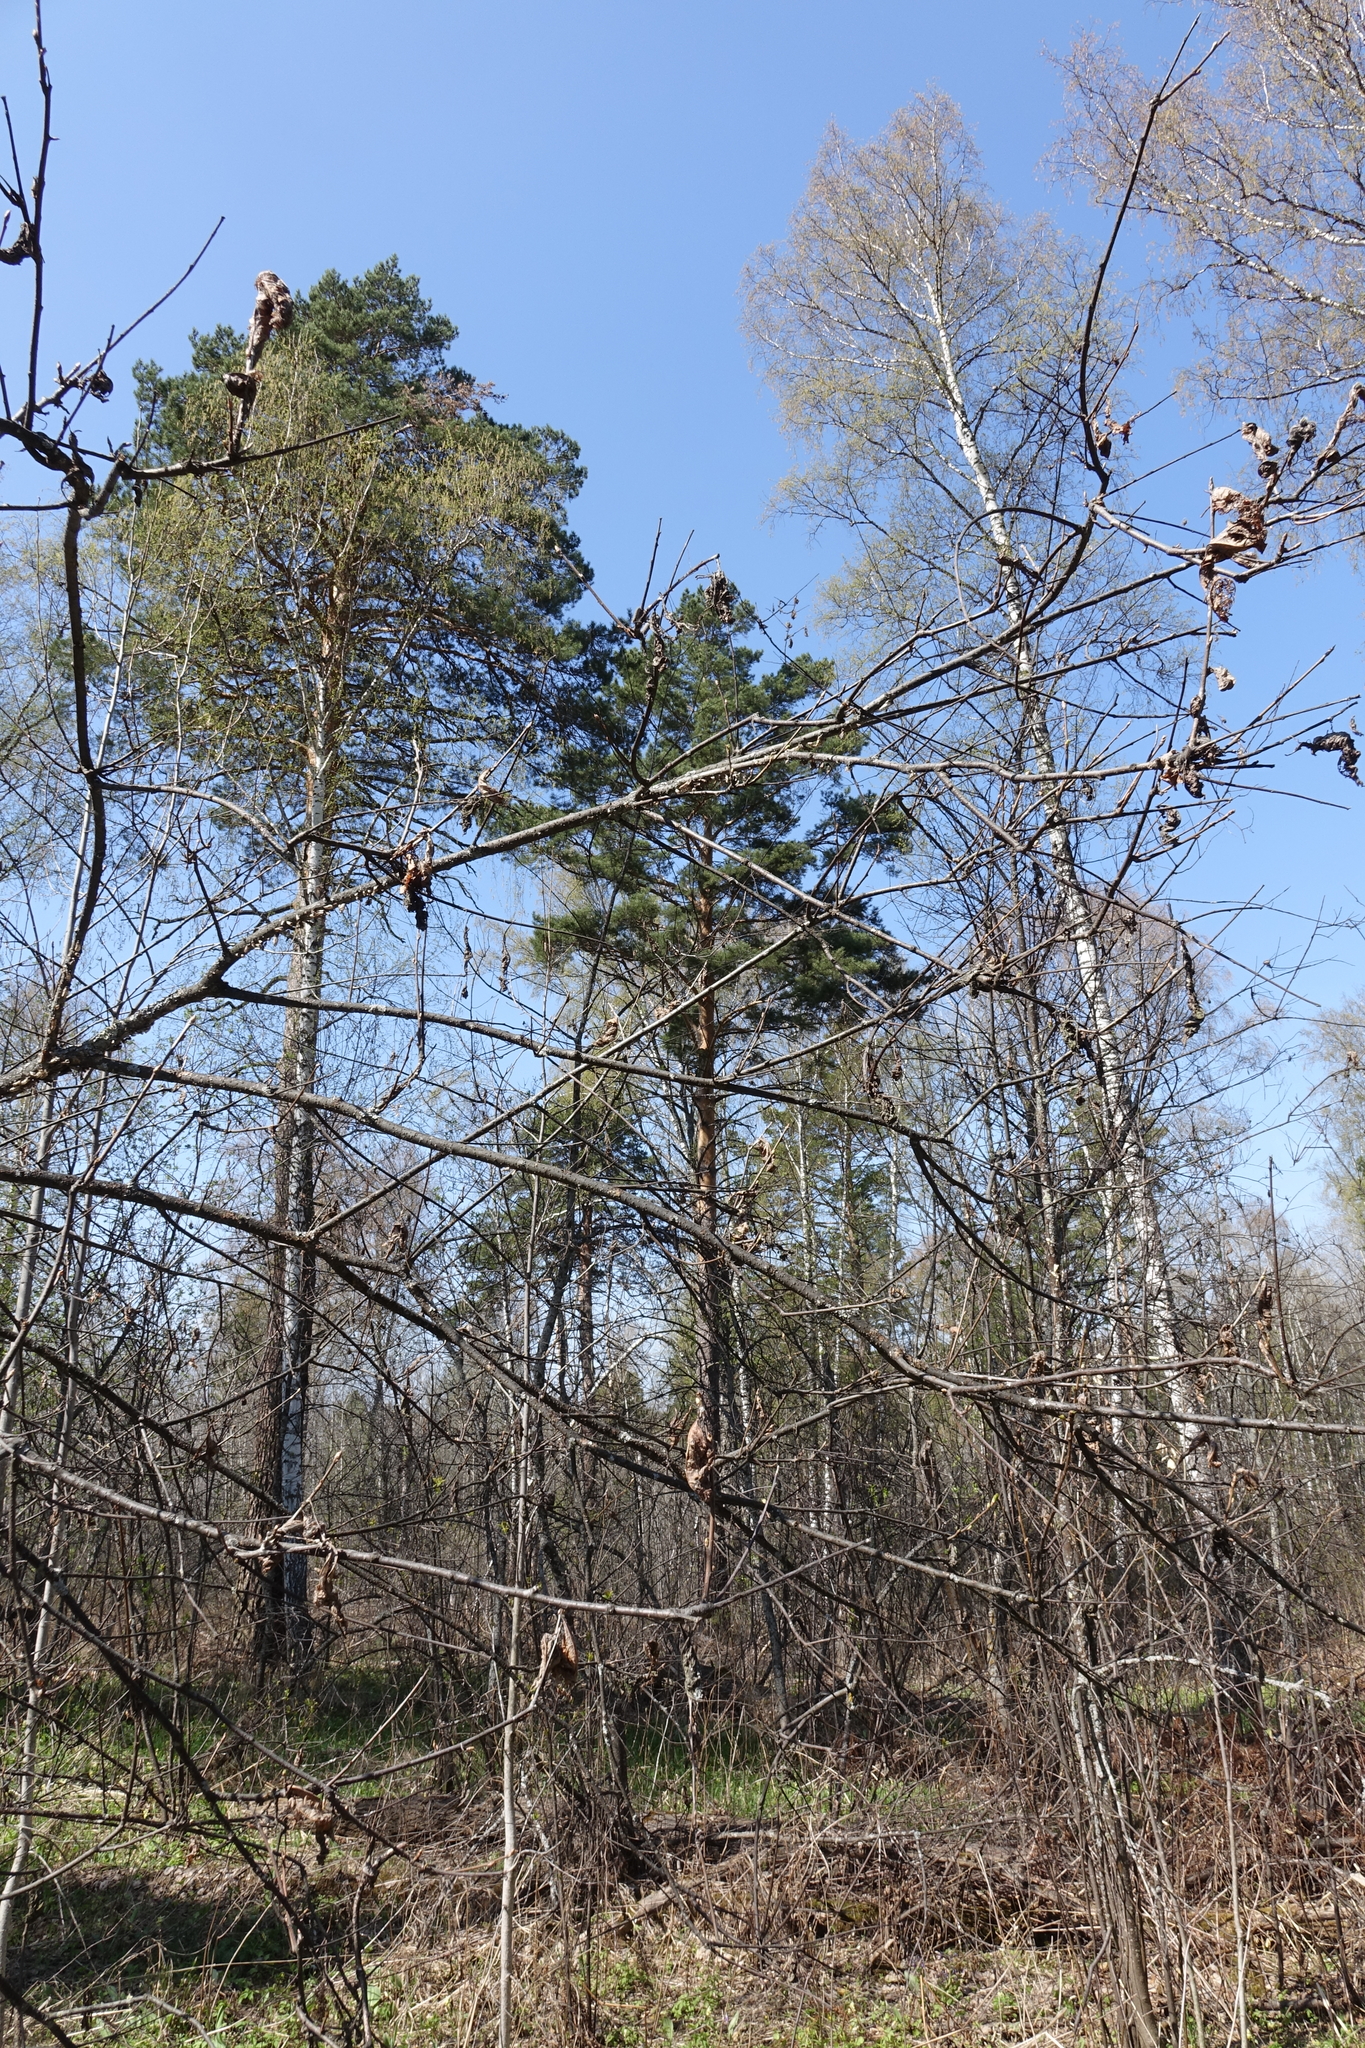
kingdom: Animalia
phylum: Arthropoda
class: Insecta
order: Lepidoptera
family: Pieridae
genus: Aporia
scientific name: Aporia crataegi
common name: Black-veined white
